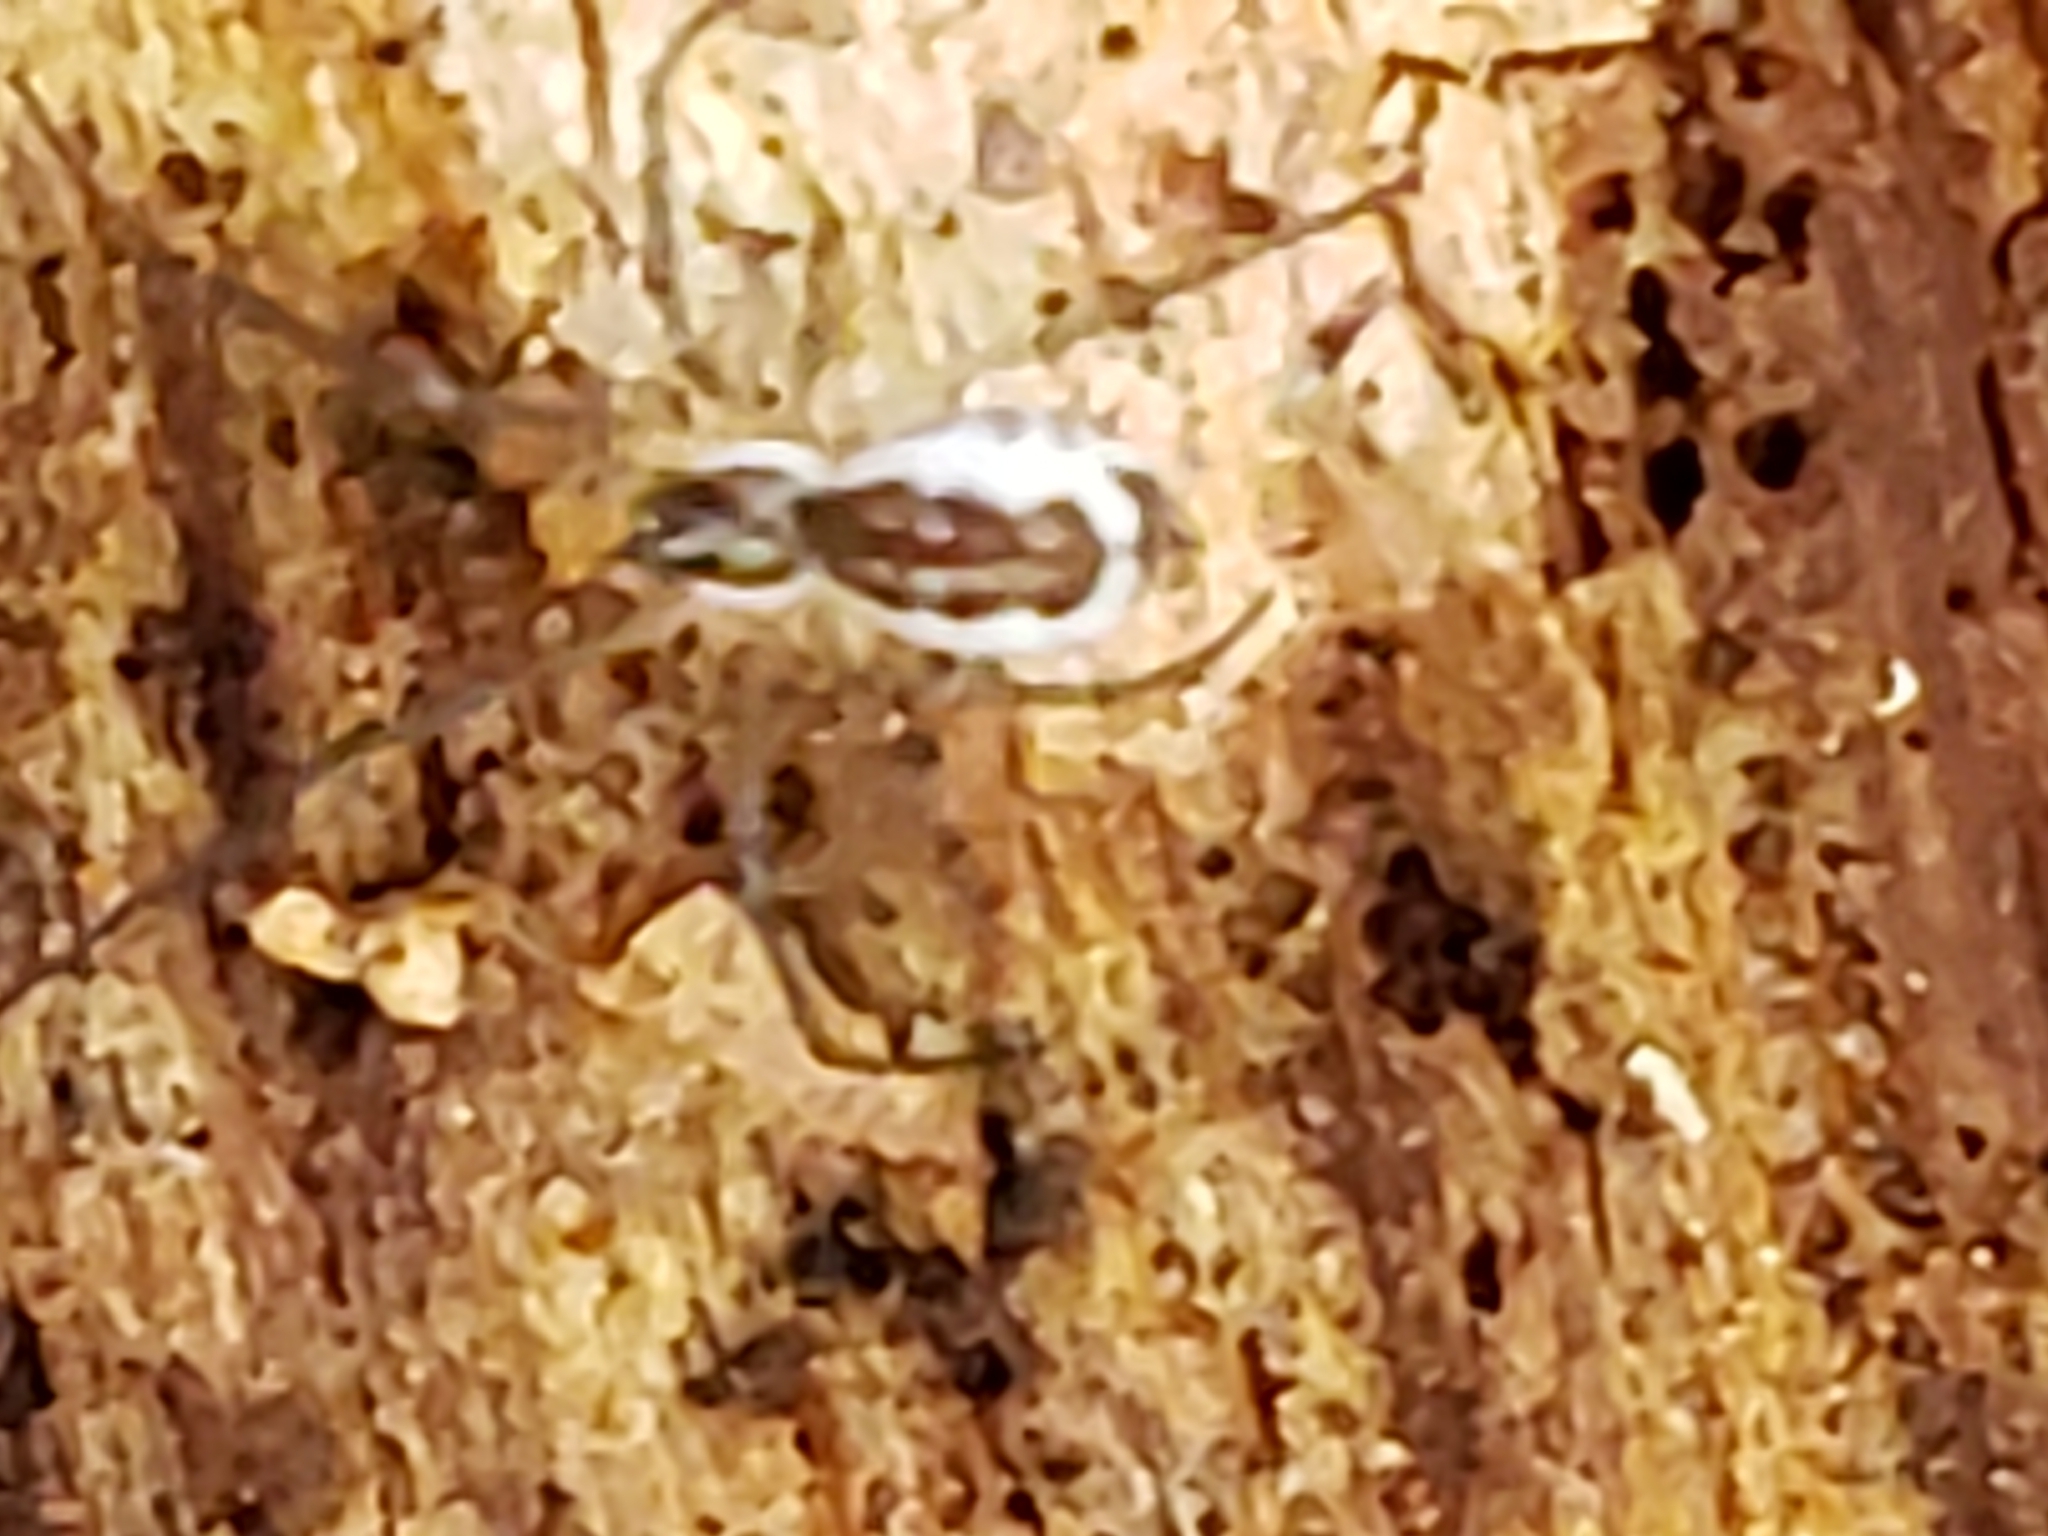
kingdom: Animalia
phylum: Arthropoda
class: Arachnida
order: Araneae
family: Linyphiidae
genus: Neriene
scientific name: Neriene radiata
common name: Filmy dome spider
